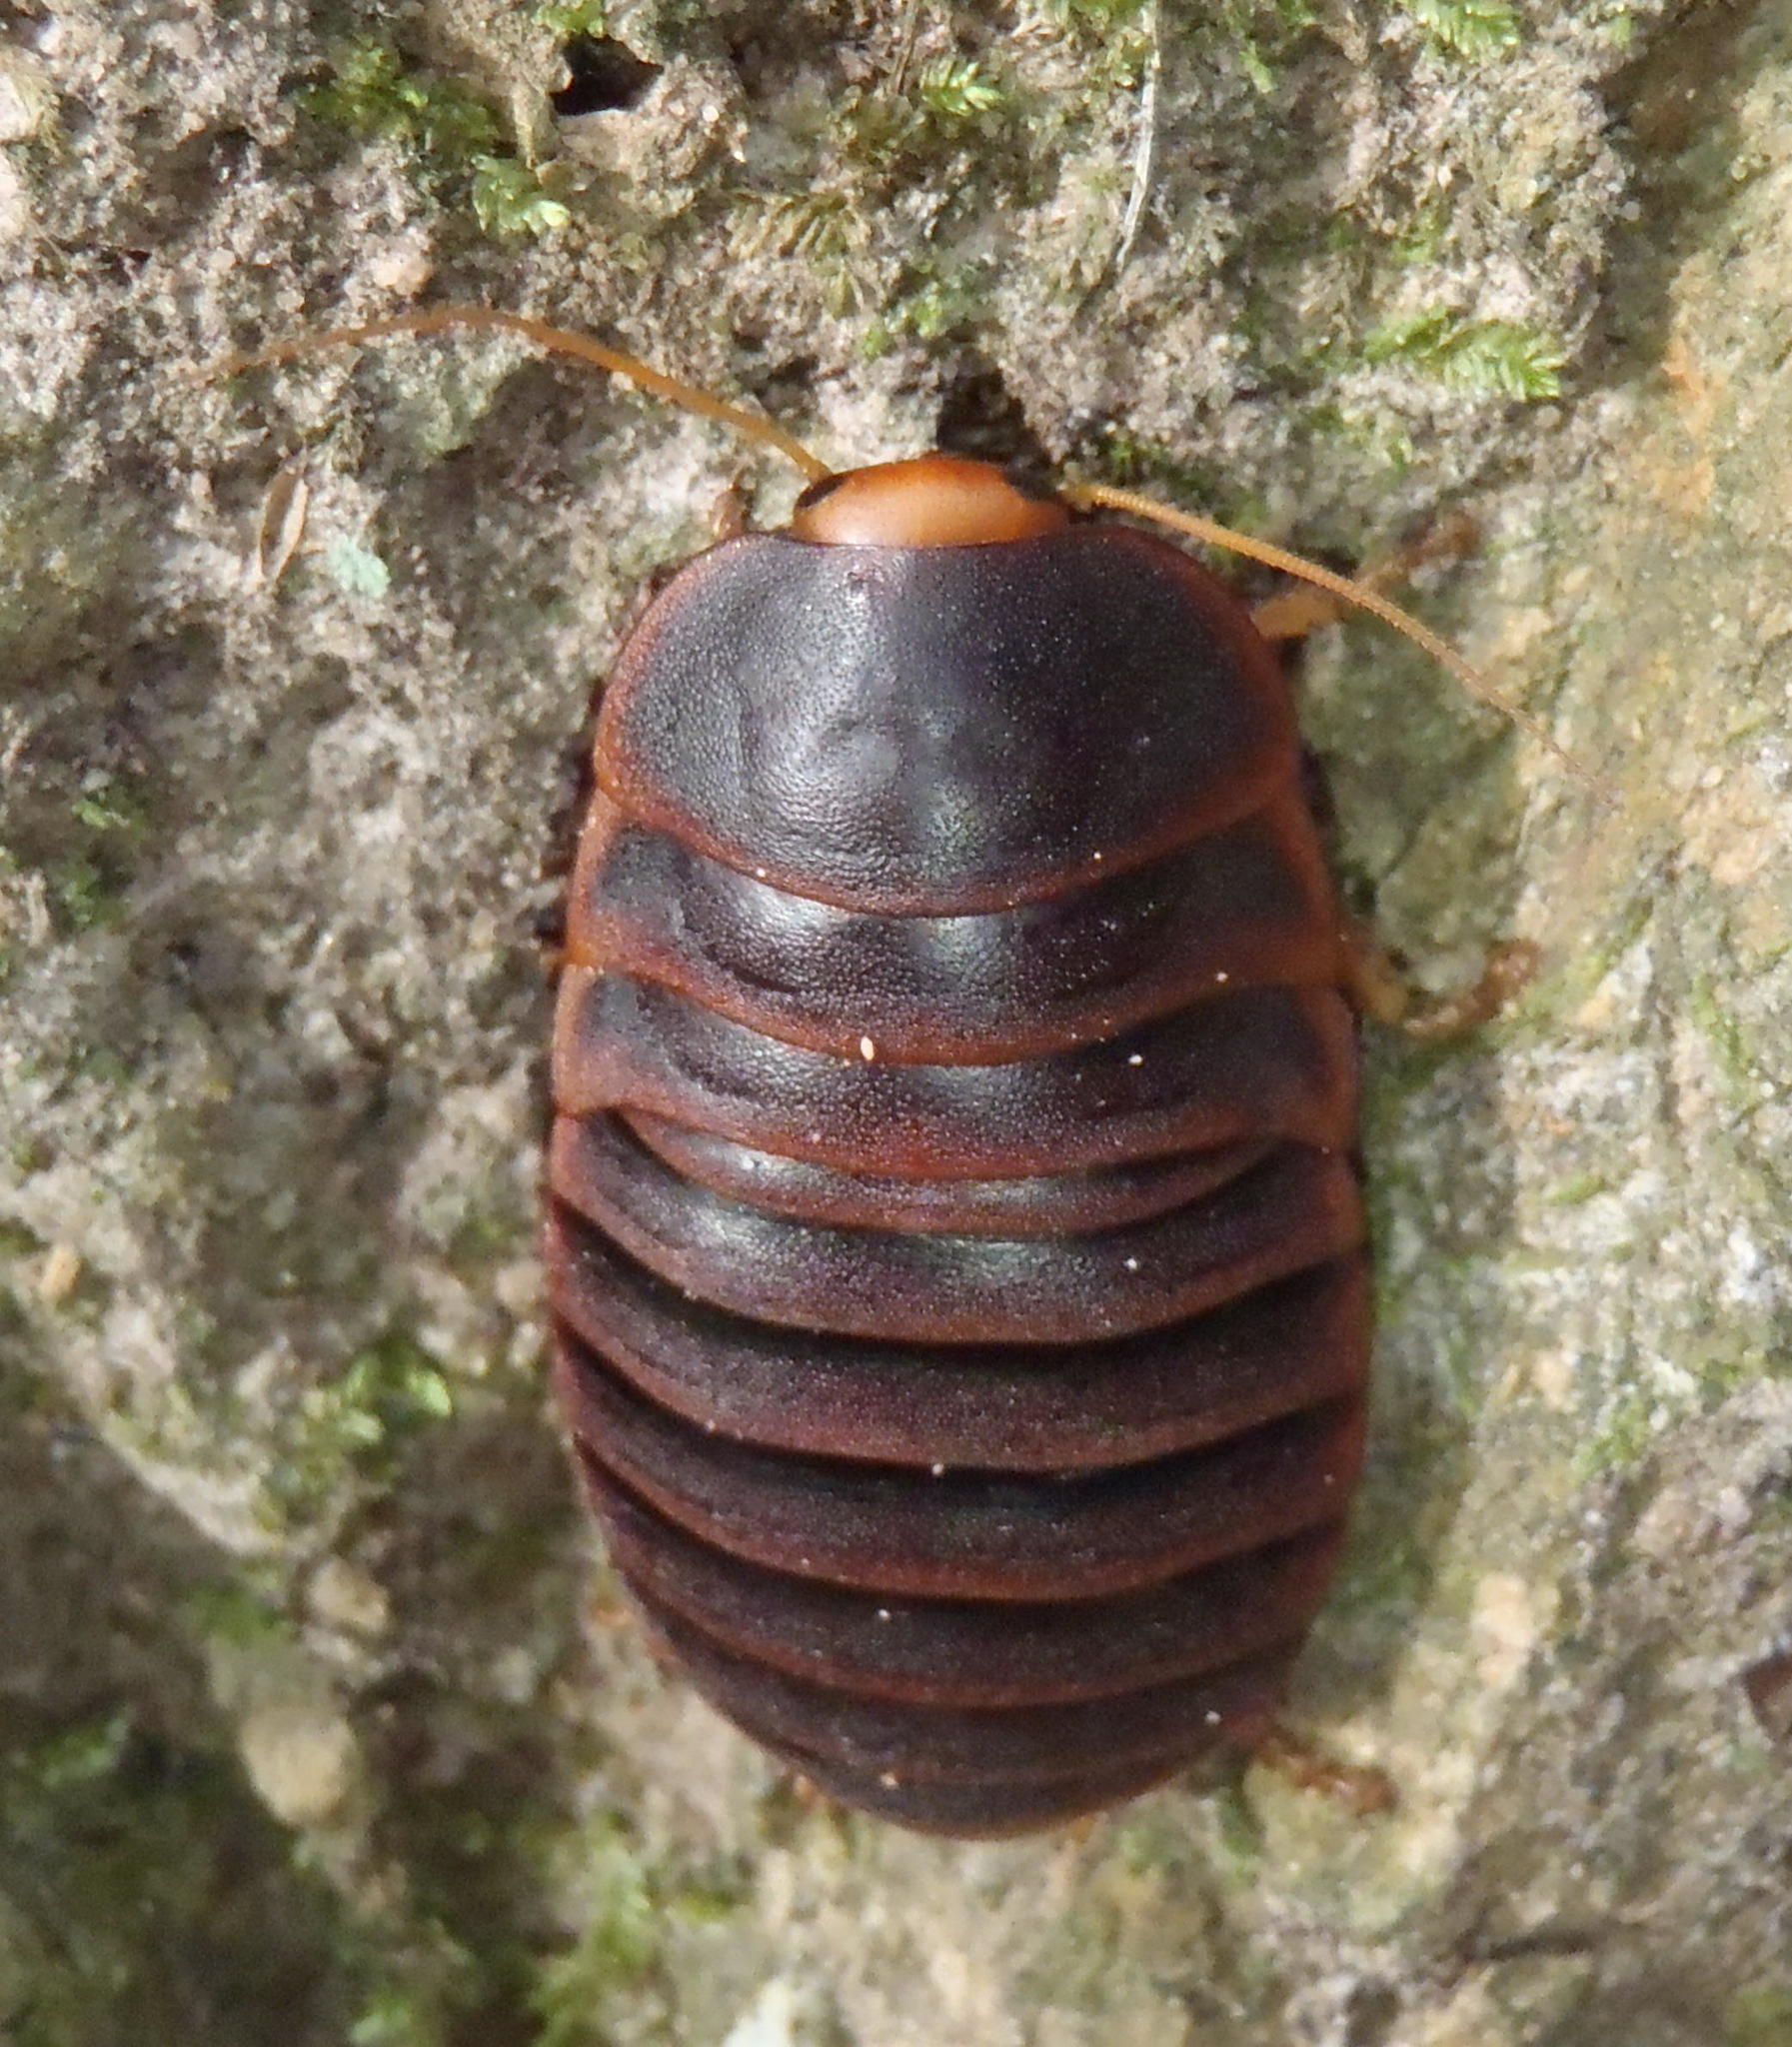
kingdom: Animalia
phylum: Arthropoda
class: Insecta
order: Blattodea
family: Blaberidae
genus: Aptera
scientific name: Aptera fusca
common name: Cape mountain cockroach
